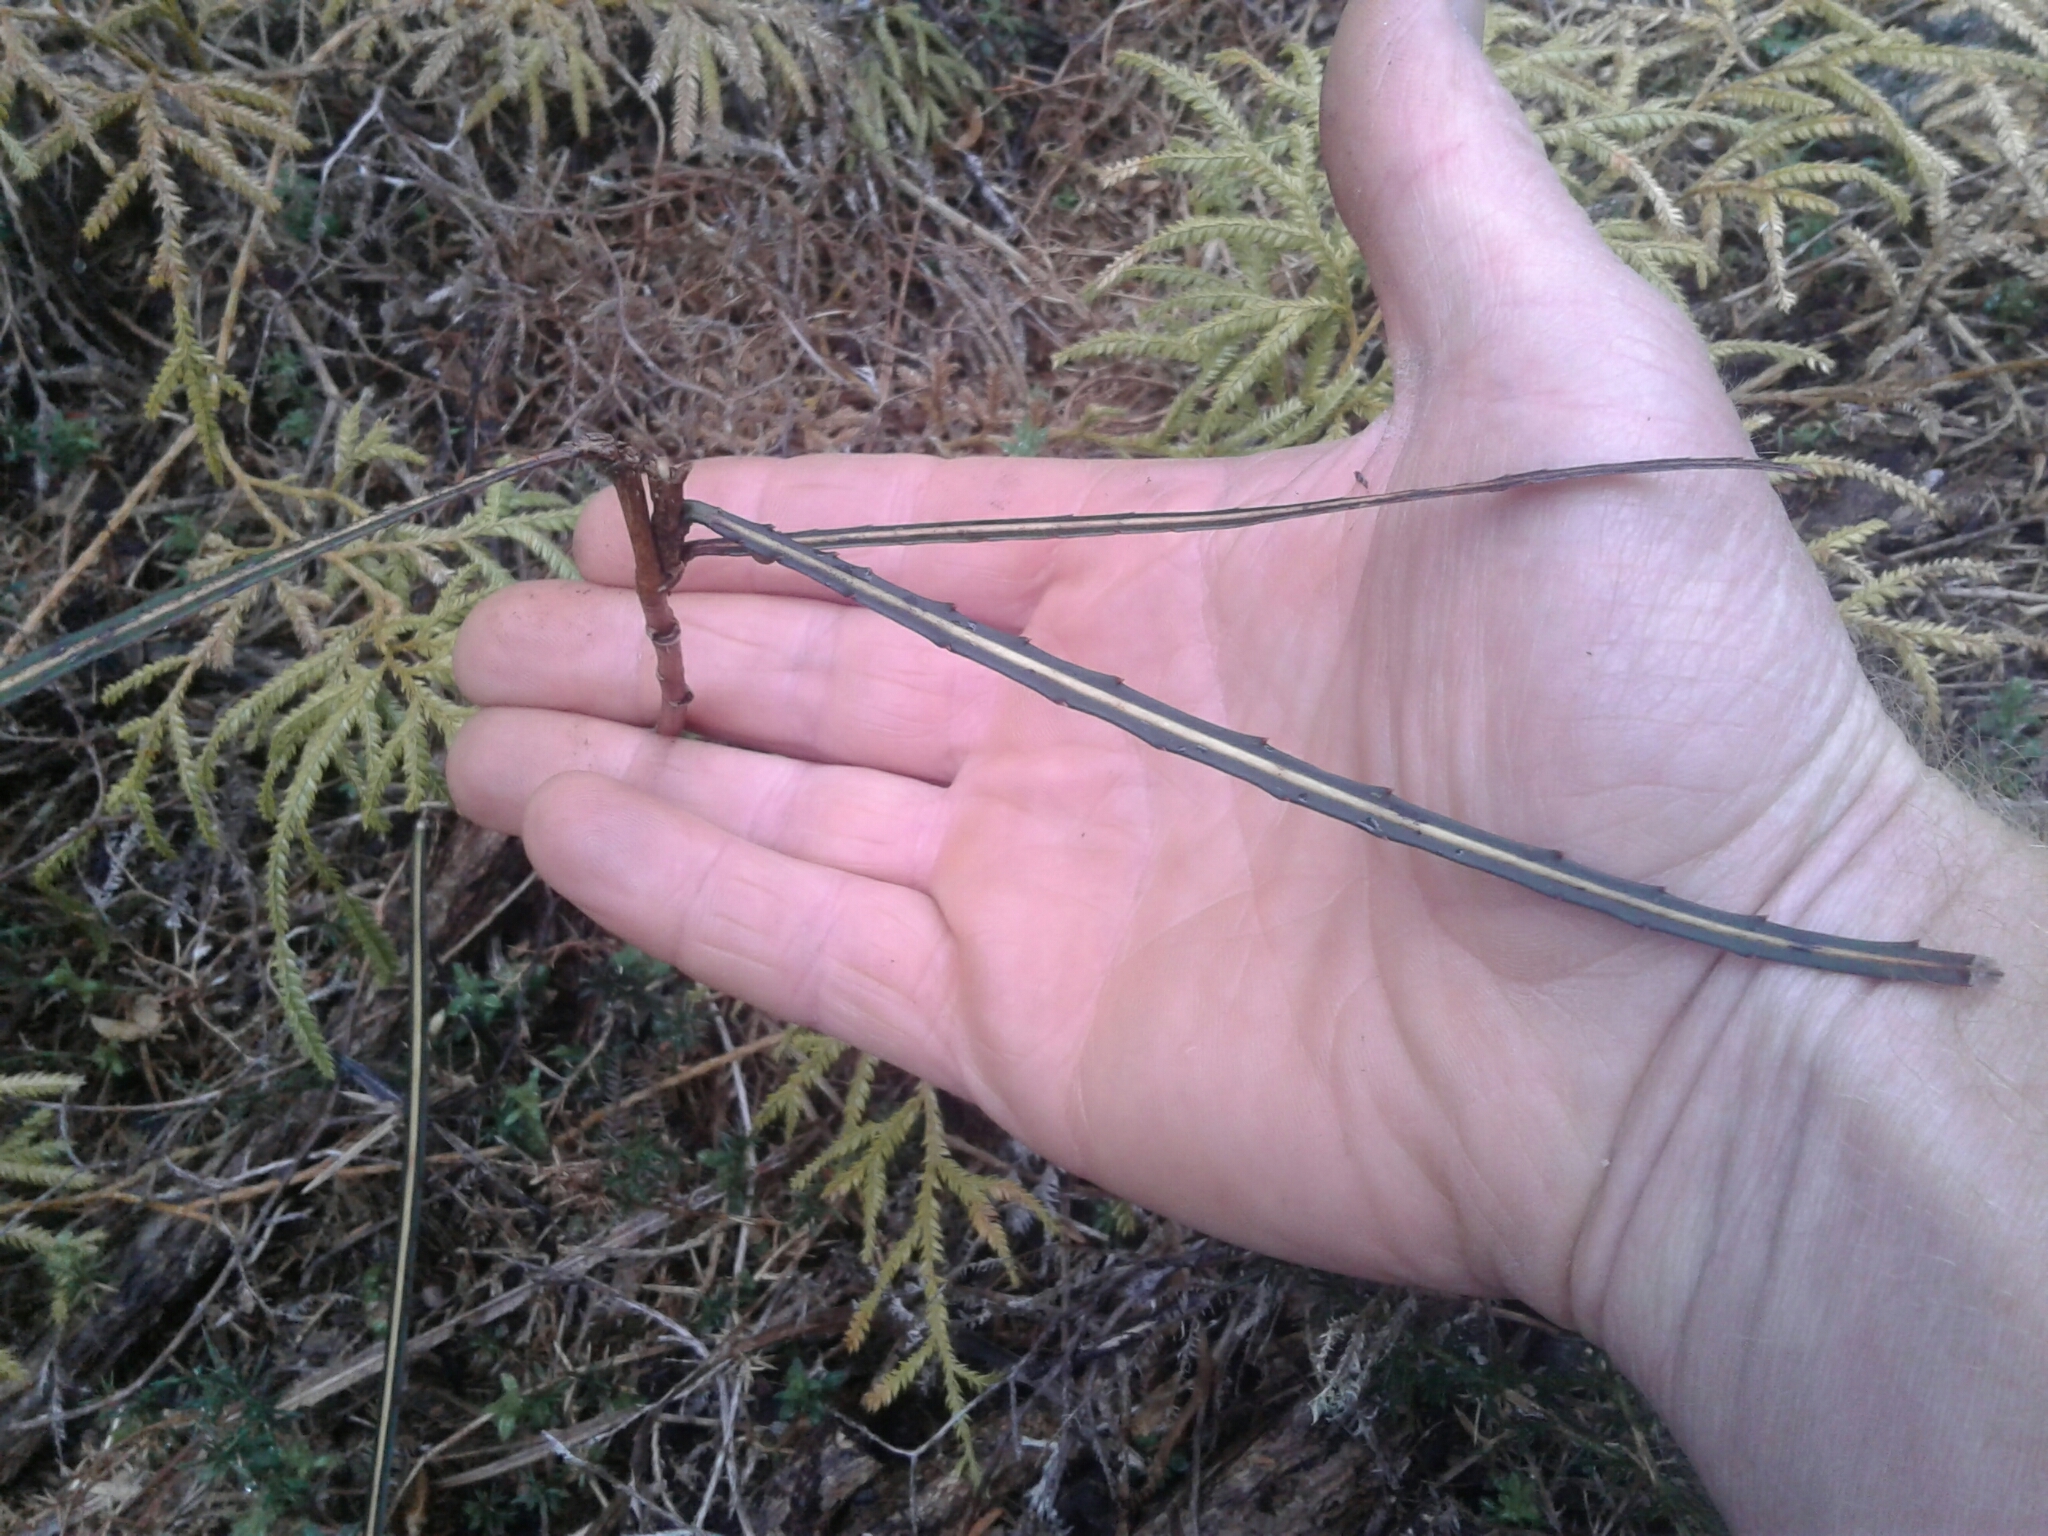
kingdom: Plantae
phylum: Tracheophyta
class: Magnoliopsida
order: Apiales
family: Araliaceae
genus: Pseudopanax
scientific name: Pseudopanax crassifolius
